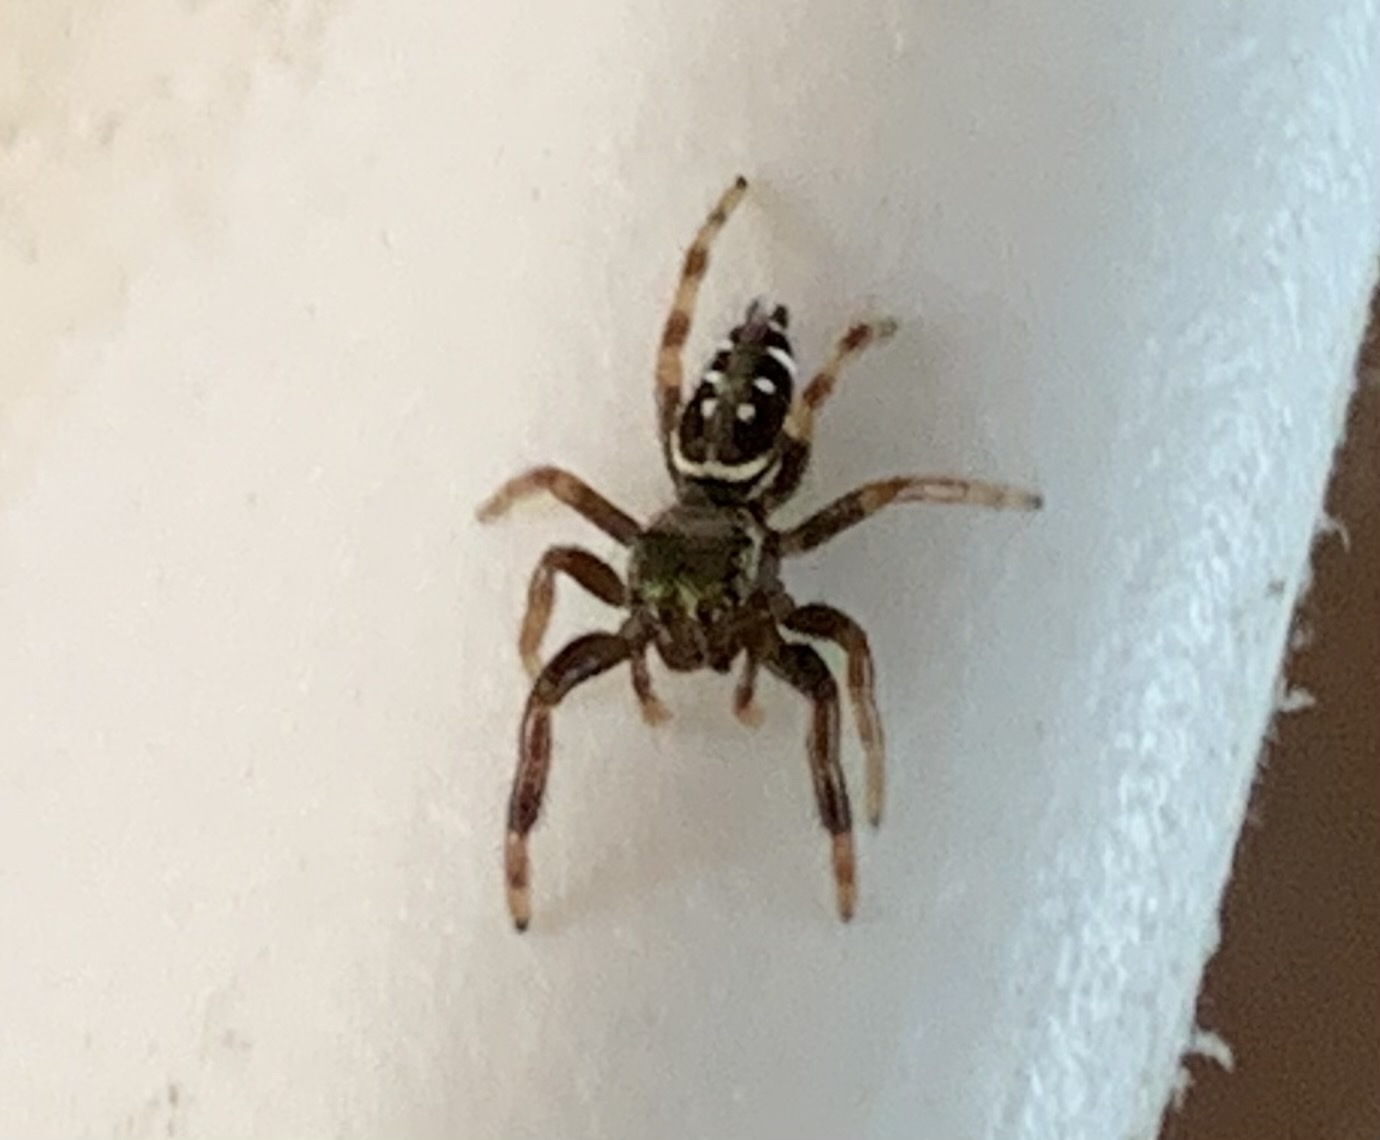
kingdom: Animalia
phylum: Arthropoda
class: Arachnida
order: Araneae
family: Salticidae
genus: Paraphidippus
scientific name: Paraphidippus aurantius
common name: Jumping spiders
